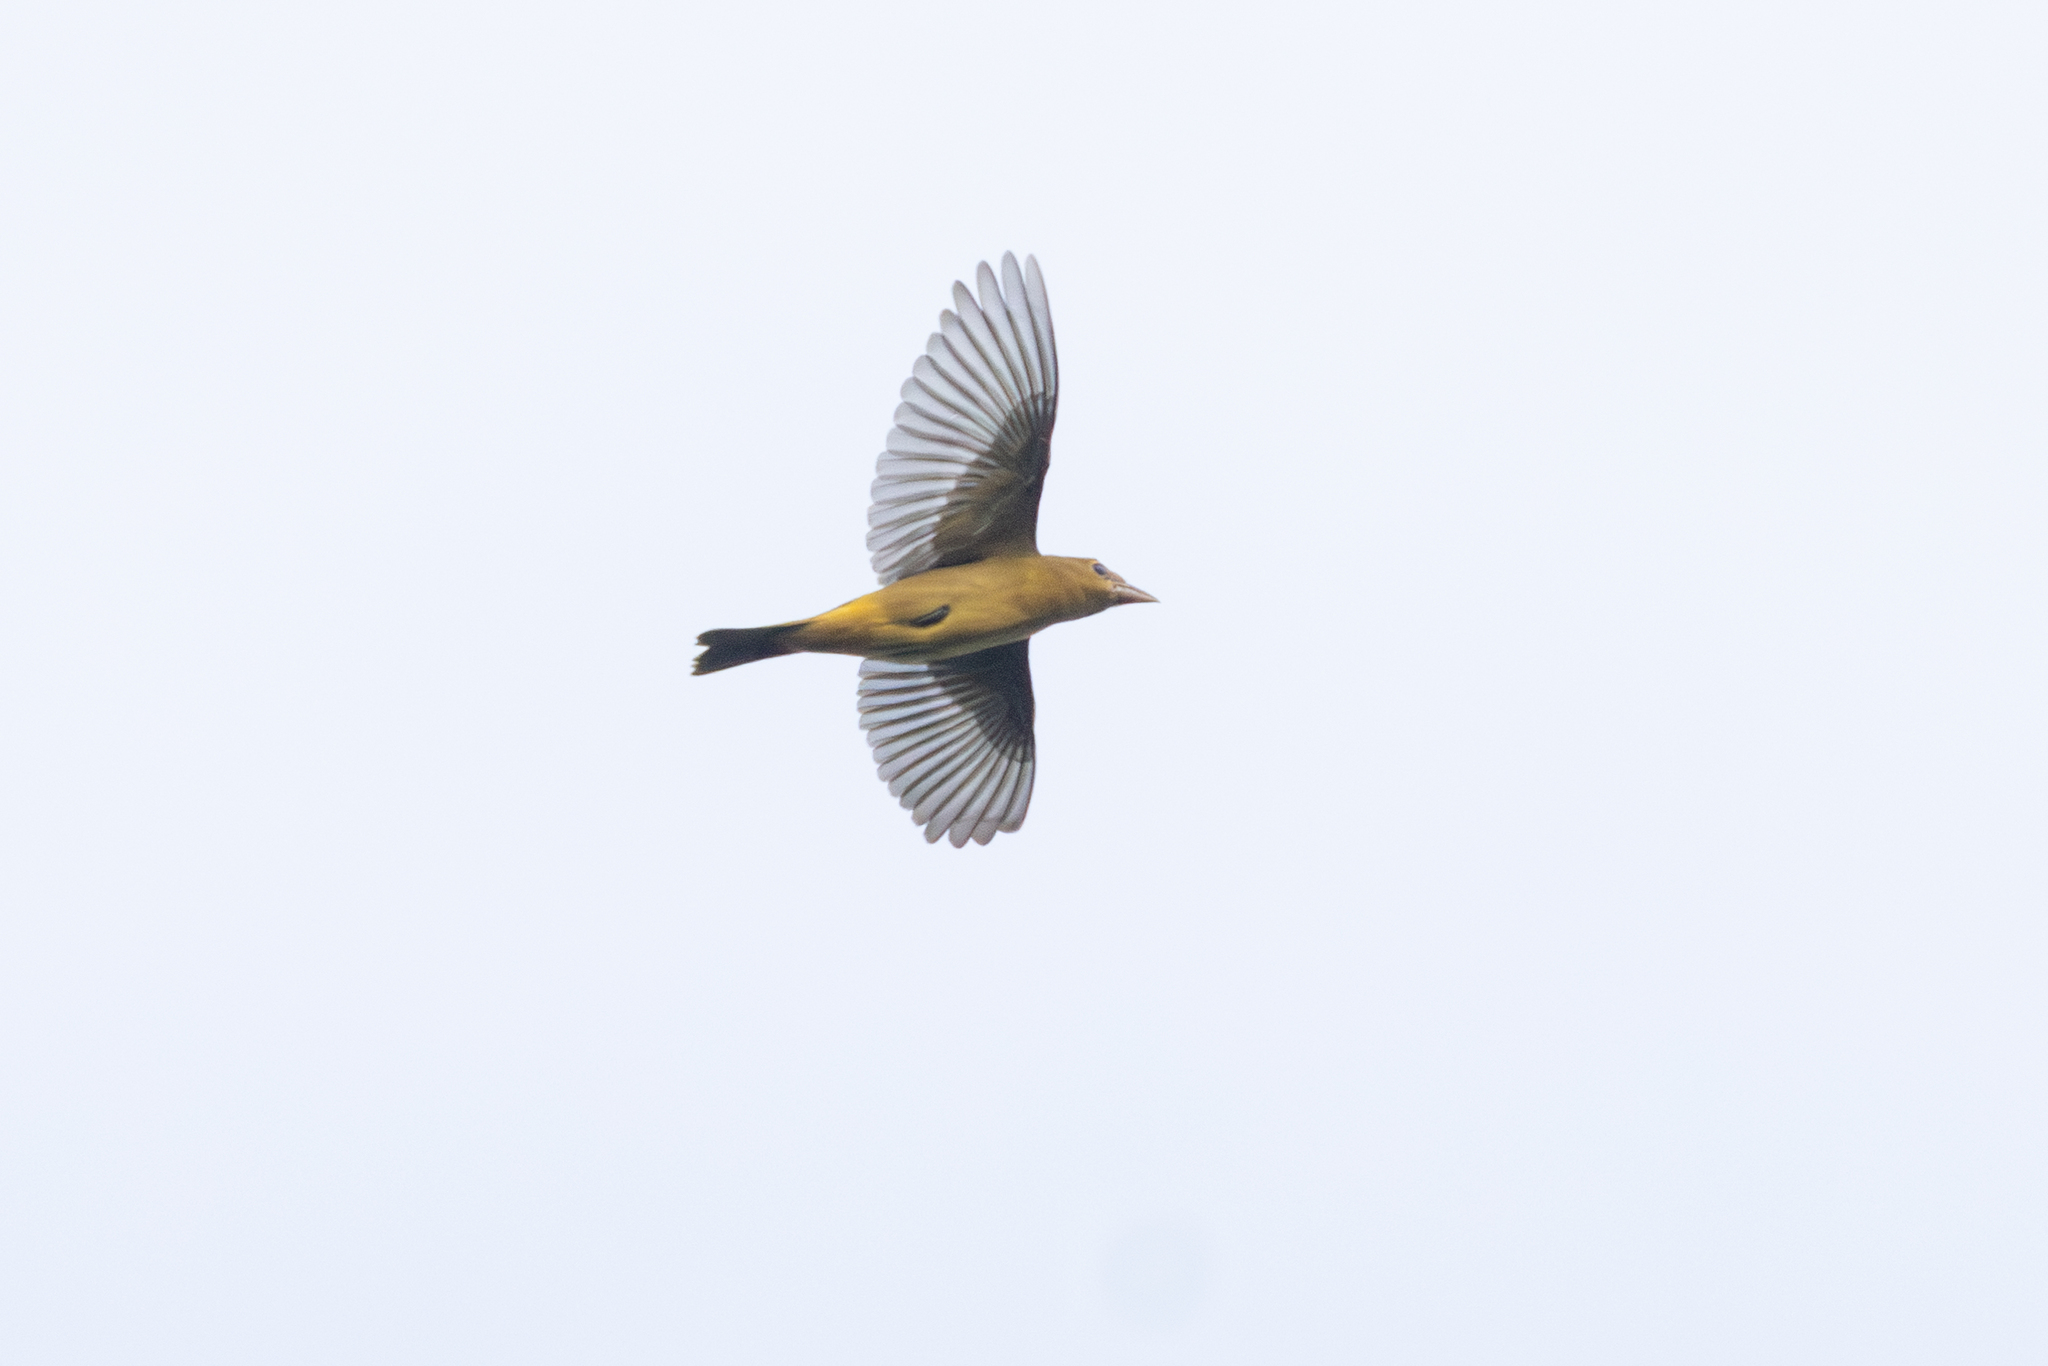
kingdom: Animalia
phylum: Chordata
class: Aves
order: Passeriformes
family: Cardinalidae
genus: Piranga
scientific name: Piranga rubra
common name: Summer tanager
